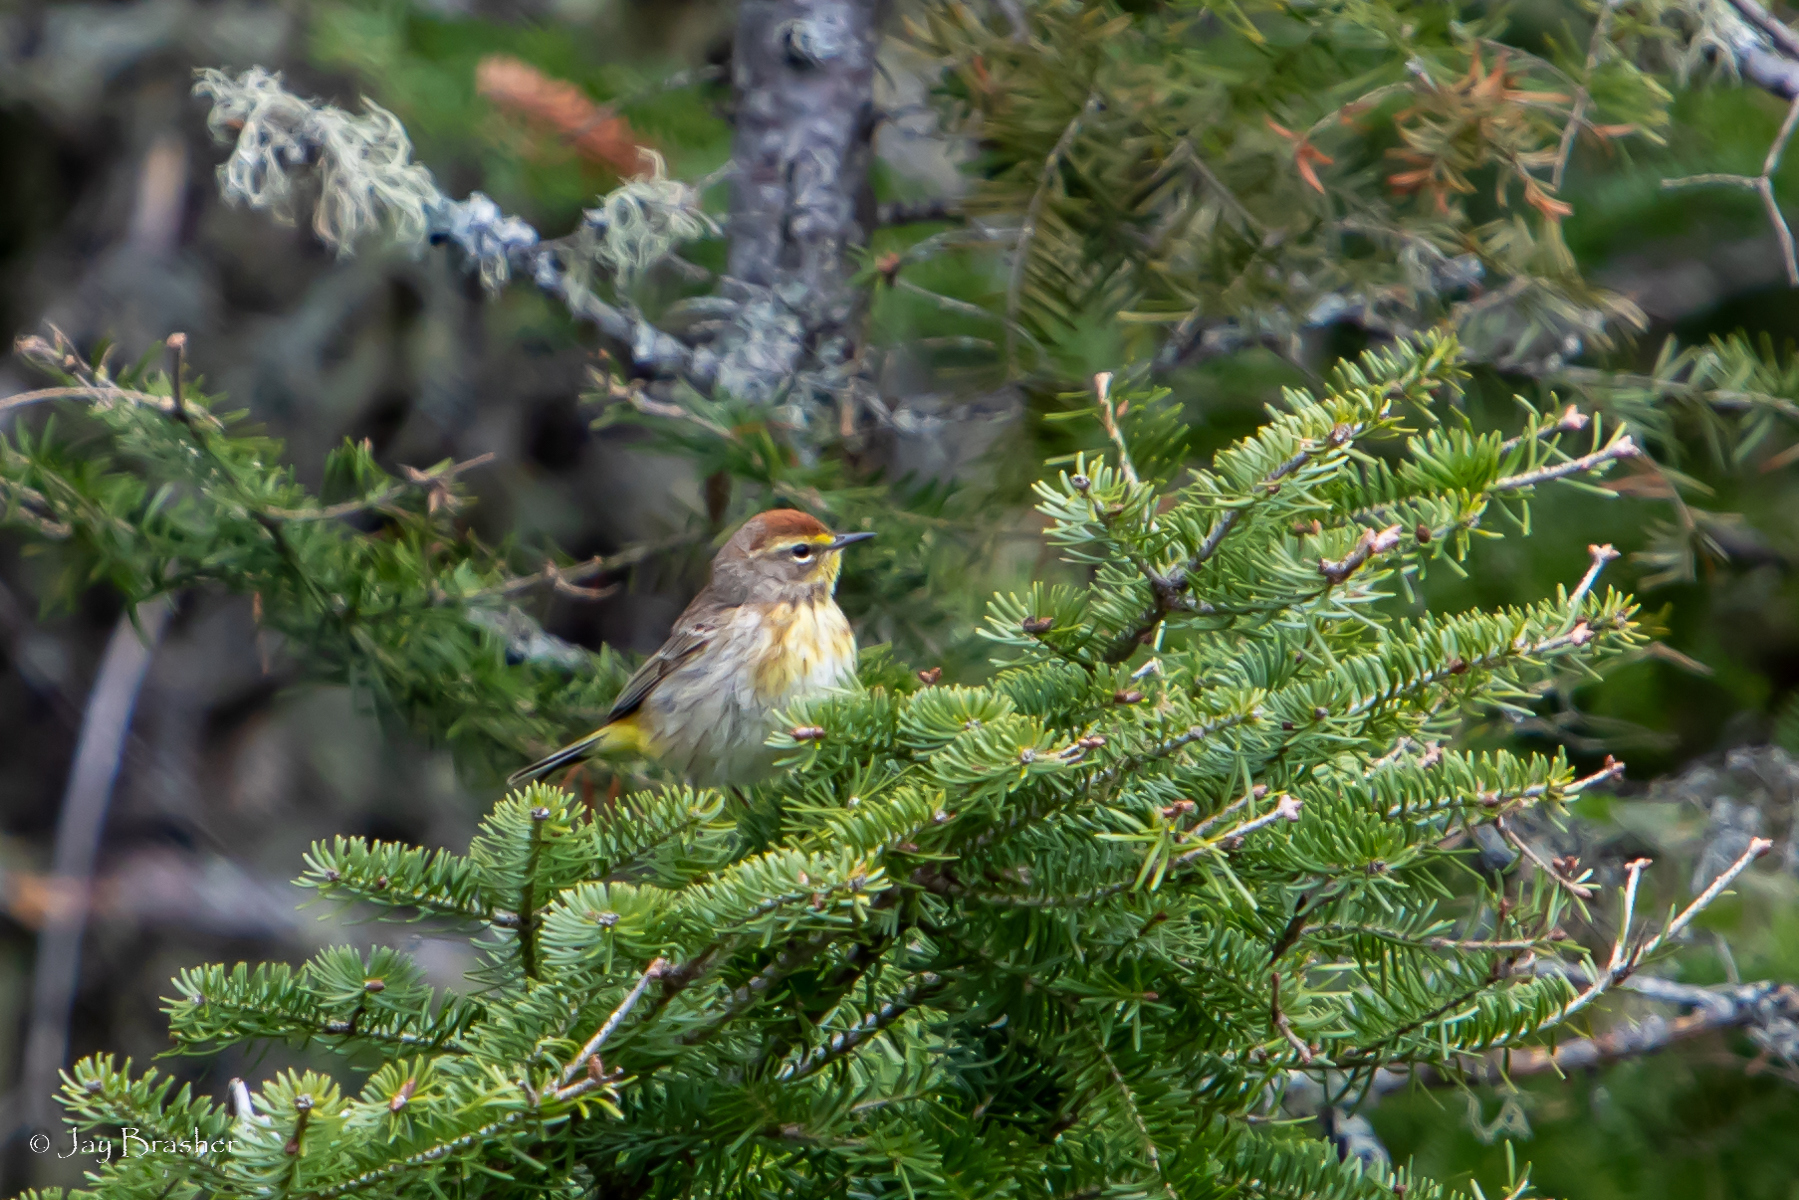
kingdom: Animalia
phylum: Chordata
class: Aves
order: Passeriformes
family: Parulidae
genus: Setophaga
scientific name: Setophaga palmarum
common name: Palm warbler
